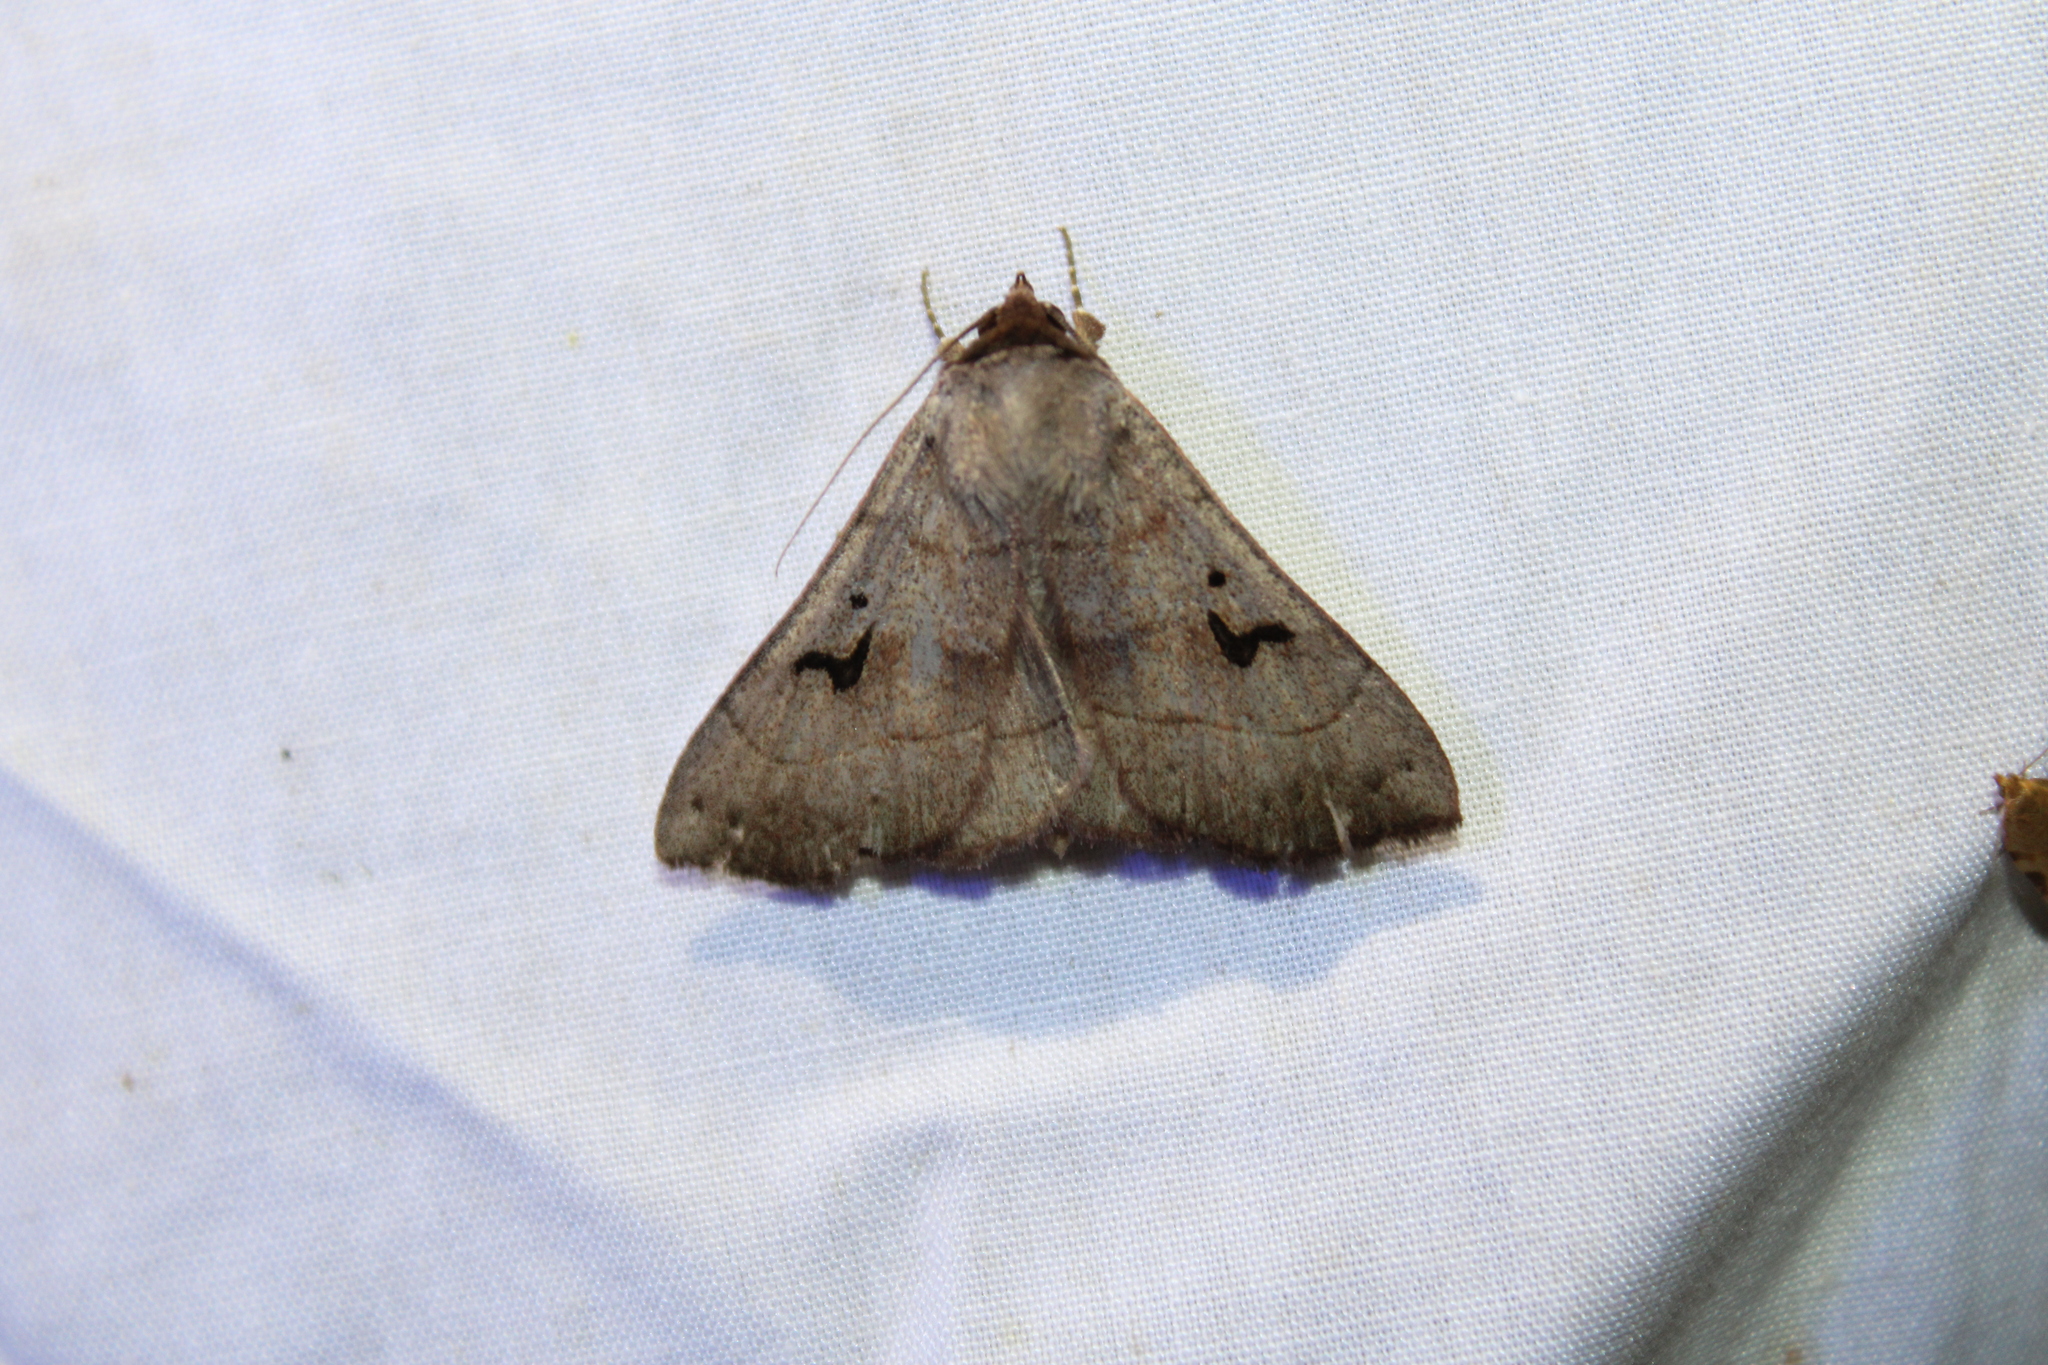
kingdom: Animalia
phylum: Arthropoda
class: Insecta
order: Lepidoptera
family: Erebidae
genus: Panopoda
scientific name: Panopoda carneicosta
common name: Brown panopoda moth
